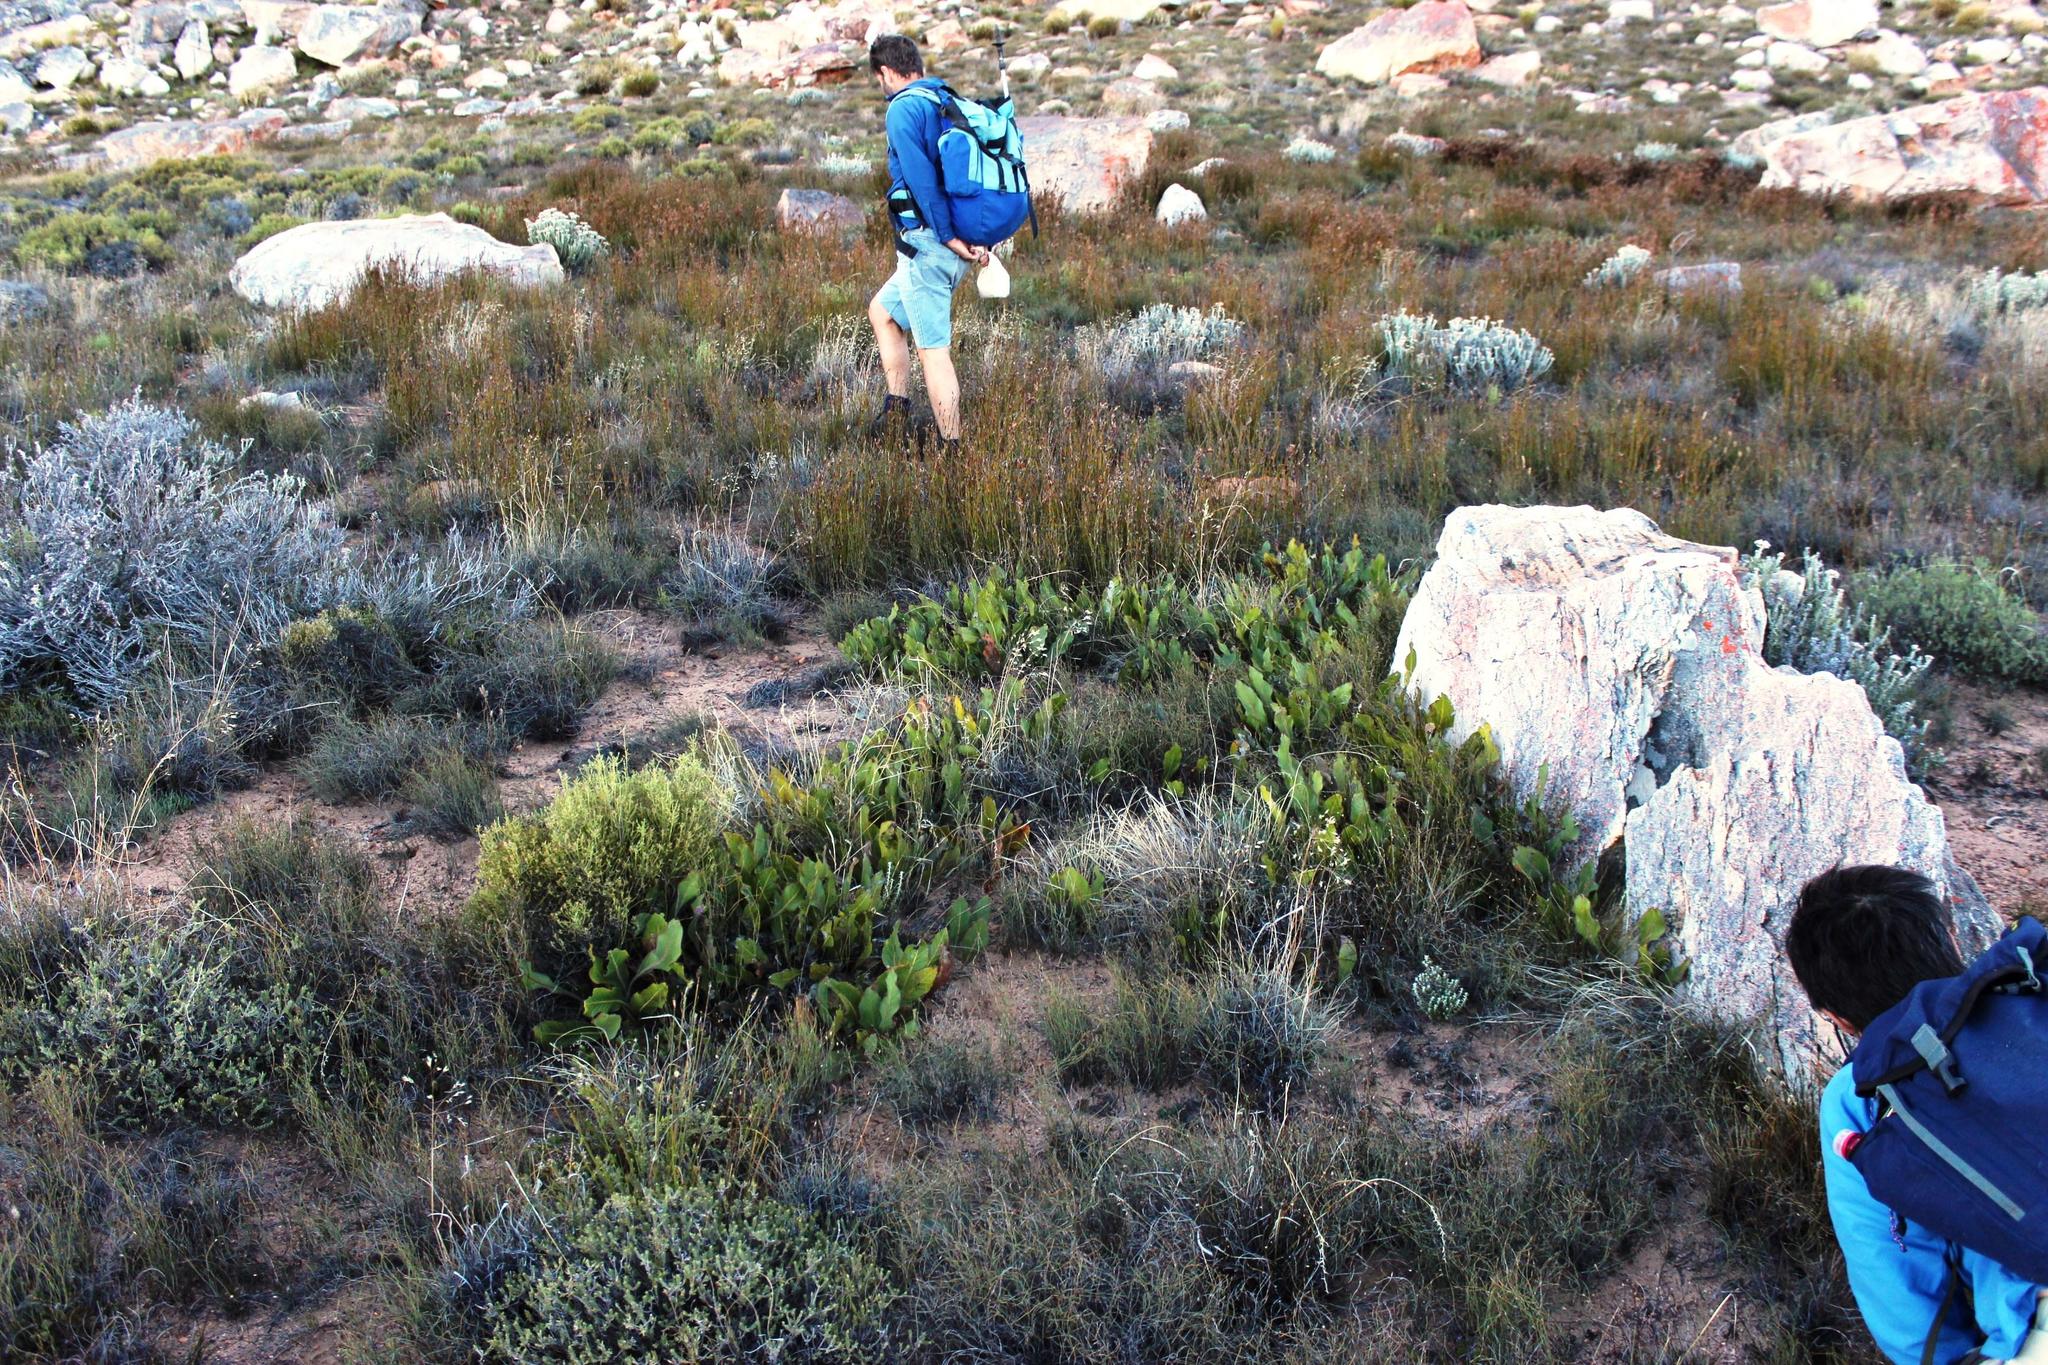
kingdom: Plantae
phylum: Tracheophyta
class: Magnoliopsida
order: Proteales
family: Proteaceae
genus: Protea
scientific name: Protea scolopendriifolia
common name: Harts-tongue-fern sugarbush
